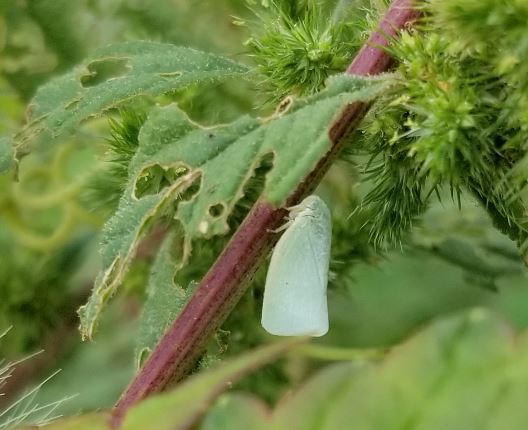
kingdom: Animalia
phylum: Arthropoda
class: Insecta
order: Hemiptera
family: Flatidae
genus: Flatormenis
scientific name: Flatormenis proxima
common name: Northern flatid planthopper
